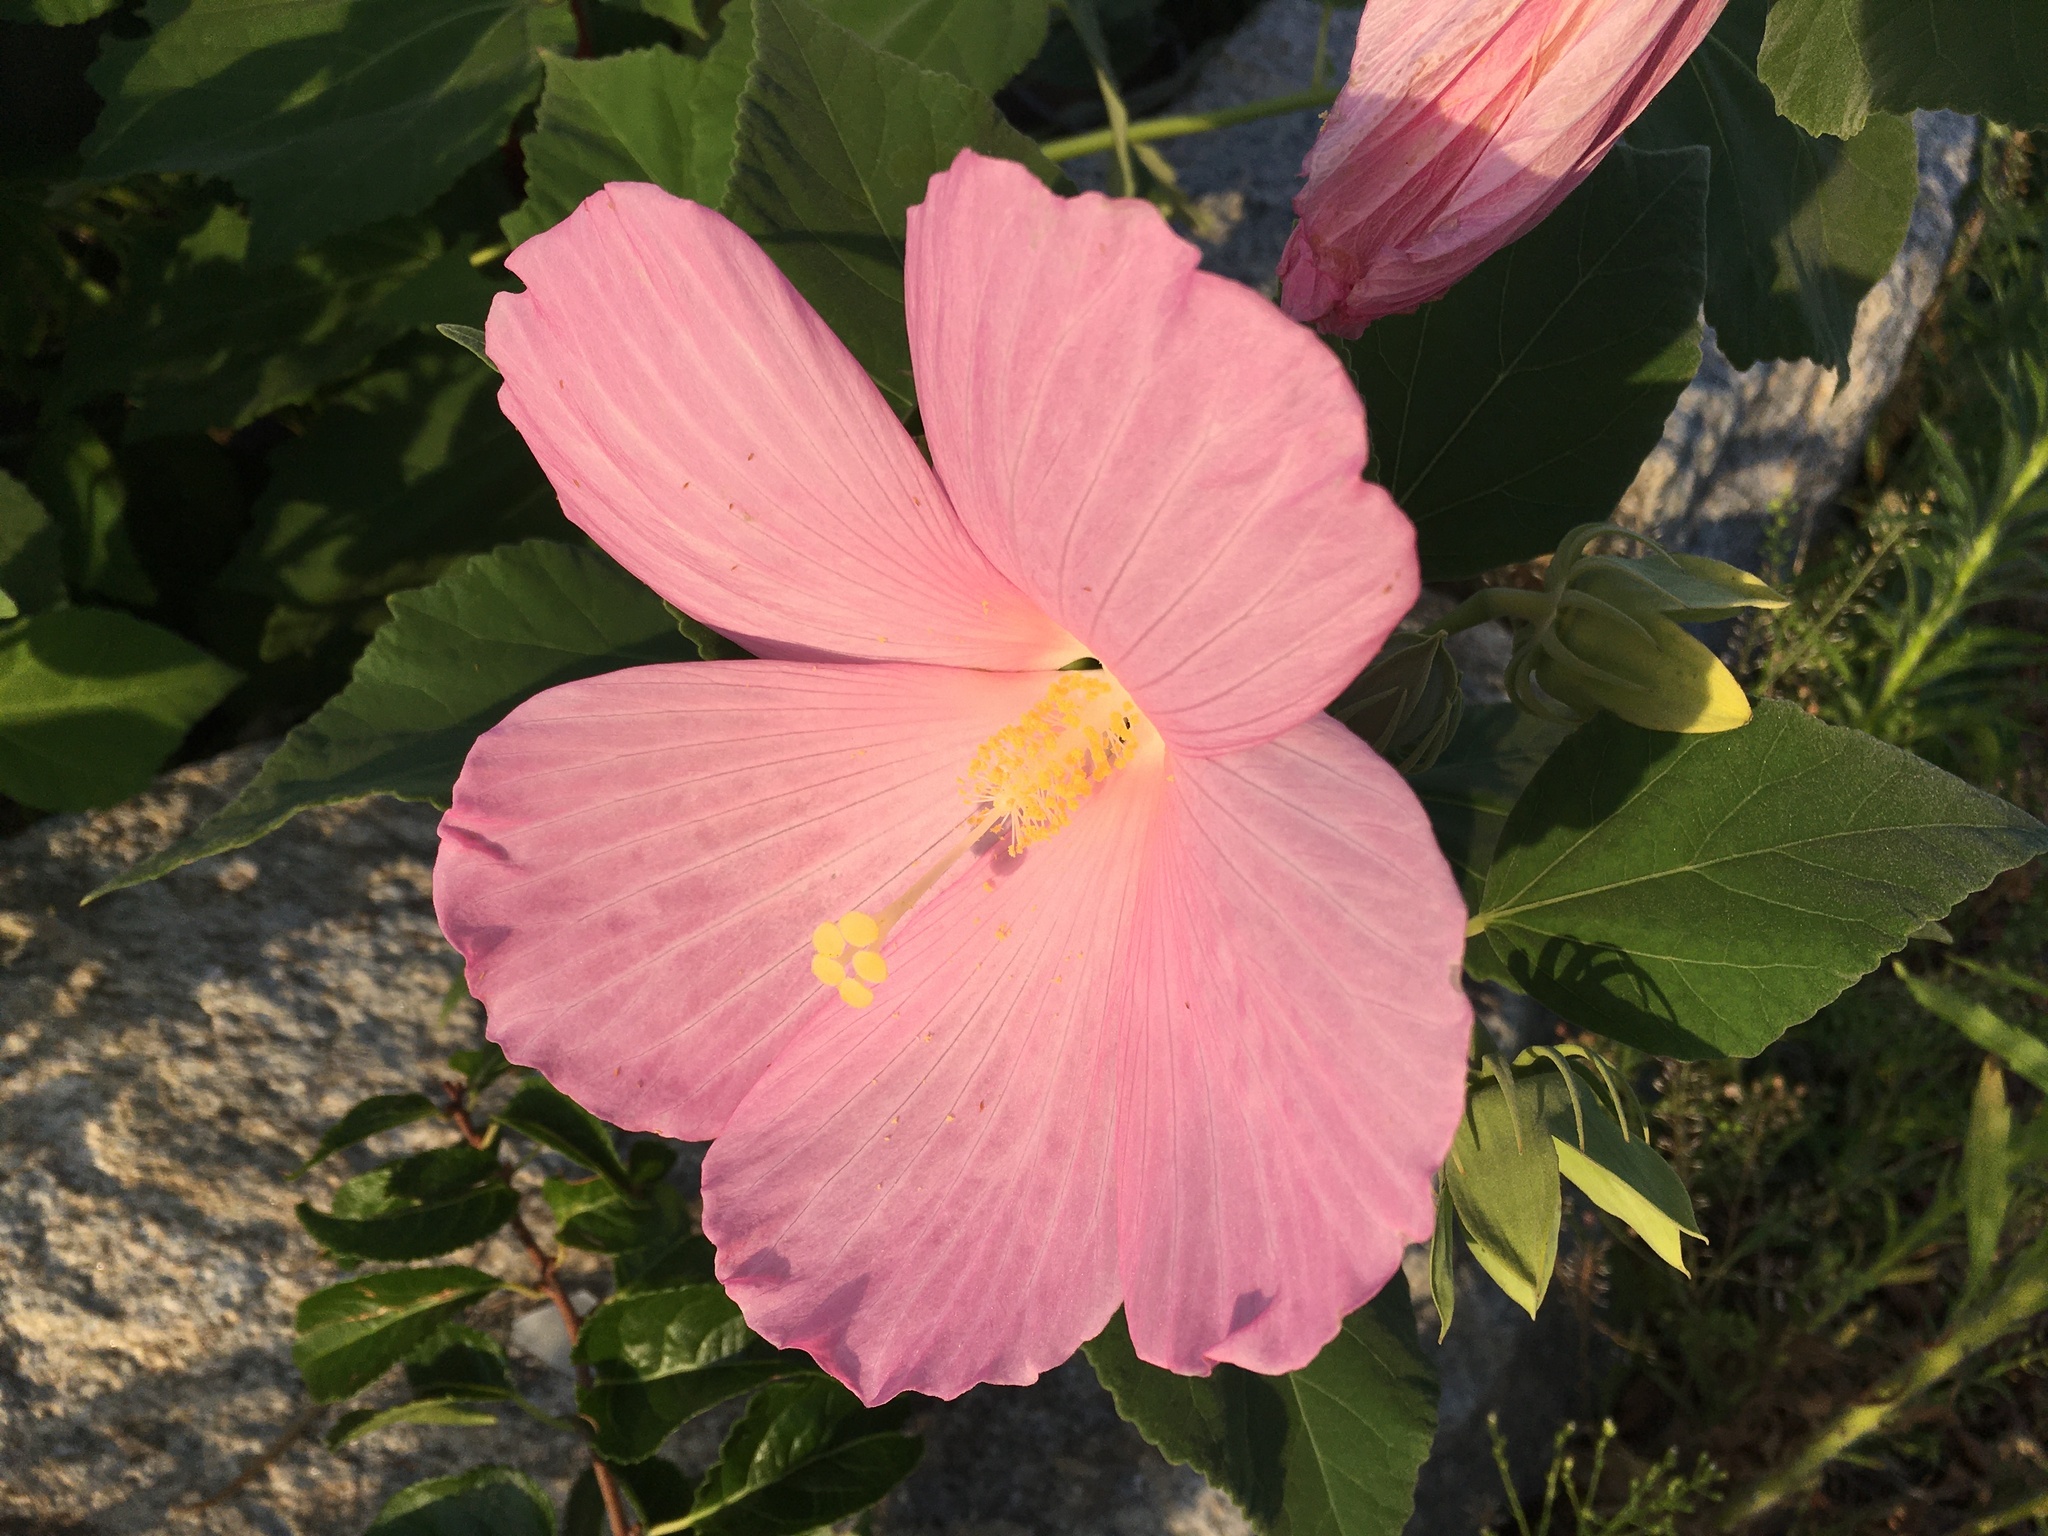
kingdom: Plantae
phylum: Tracheophyta
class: Magnoliopsida
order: Malvales
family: Malvaceae
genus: Hibiscus
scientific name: Hibiscus moscheutos
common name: Common rose-mallow
